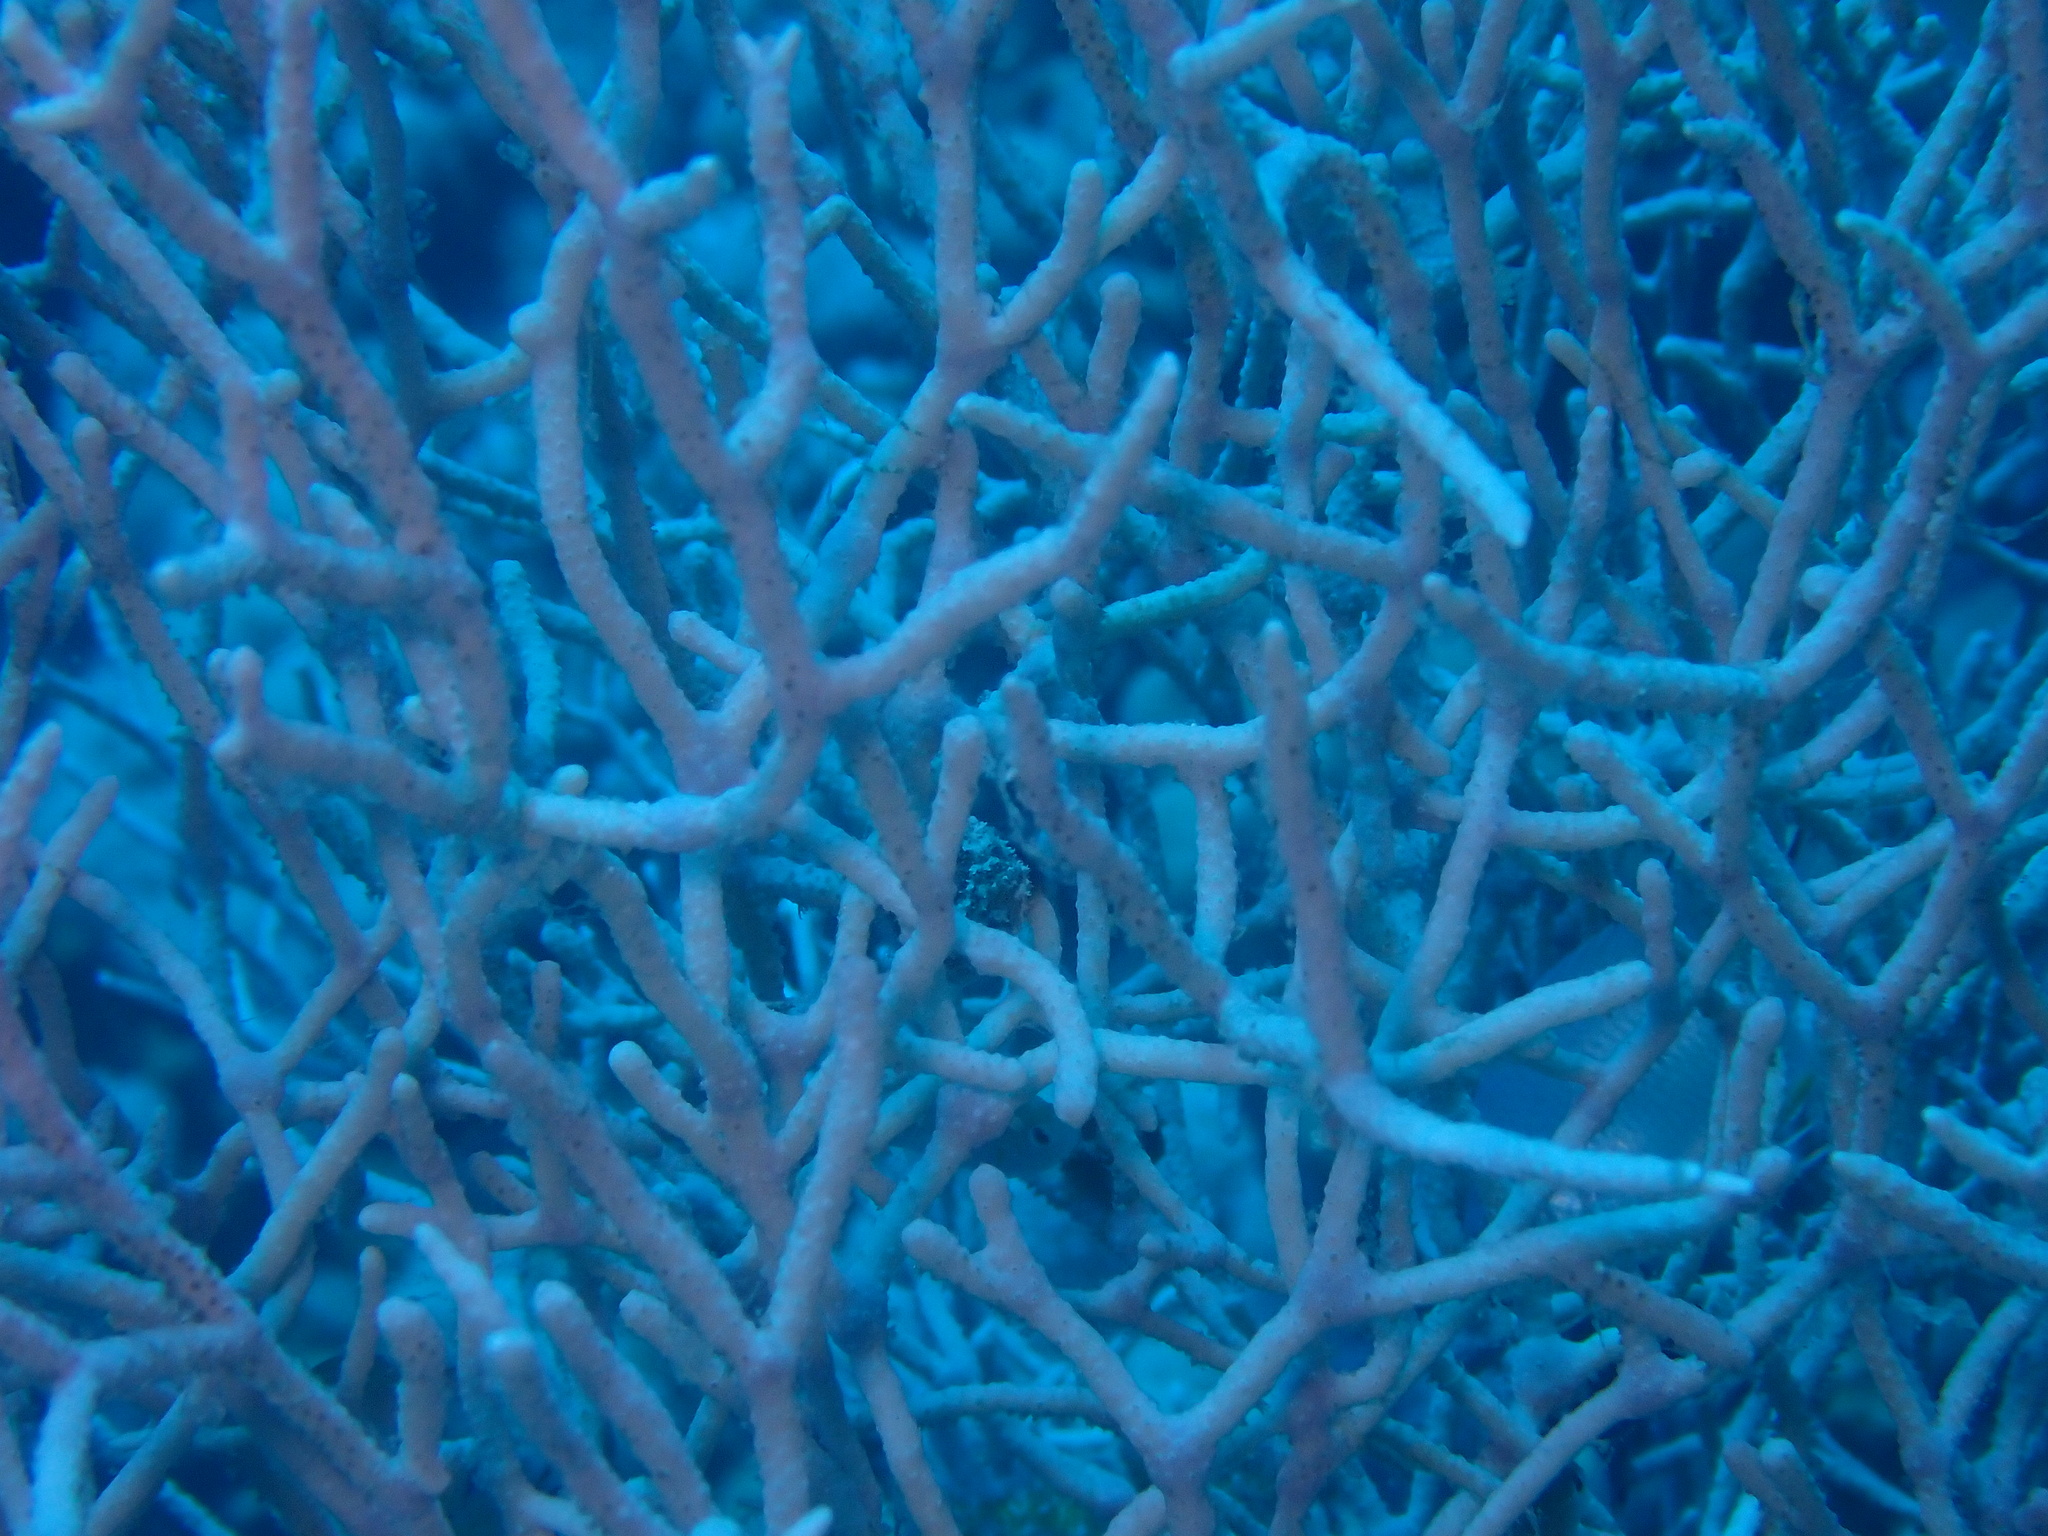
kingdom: Animalia
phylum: Cnidaria
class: Anthozoa
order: Malacalcyonacea
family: Melithaeidae
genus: Melithaea
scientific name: Melithaea rubrinodis
